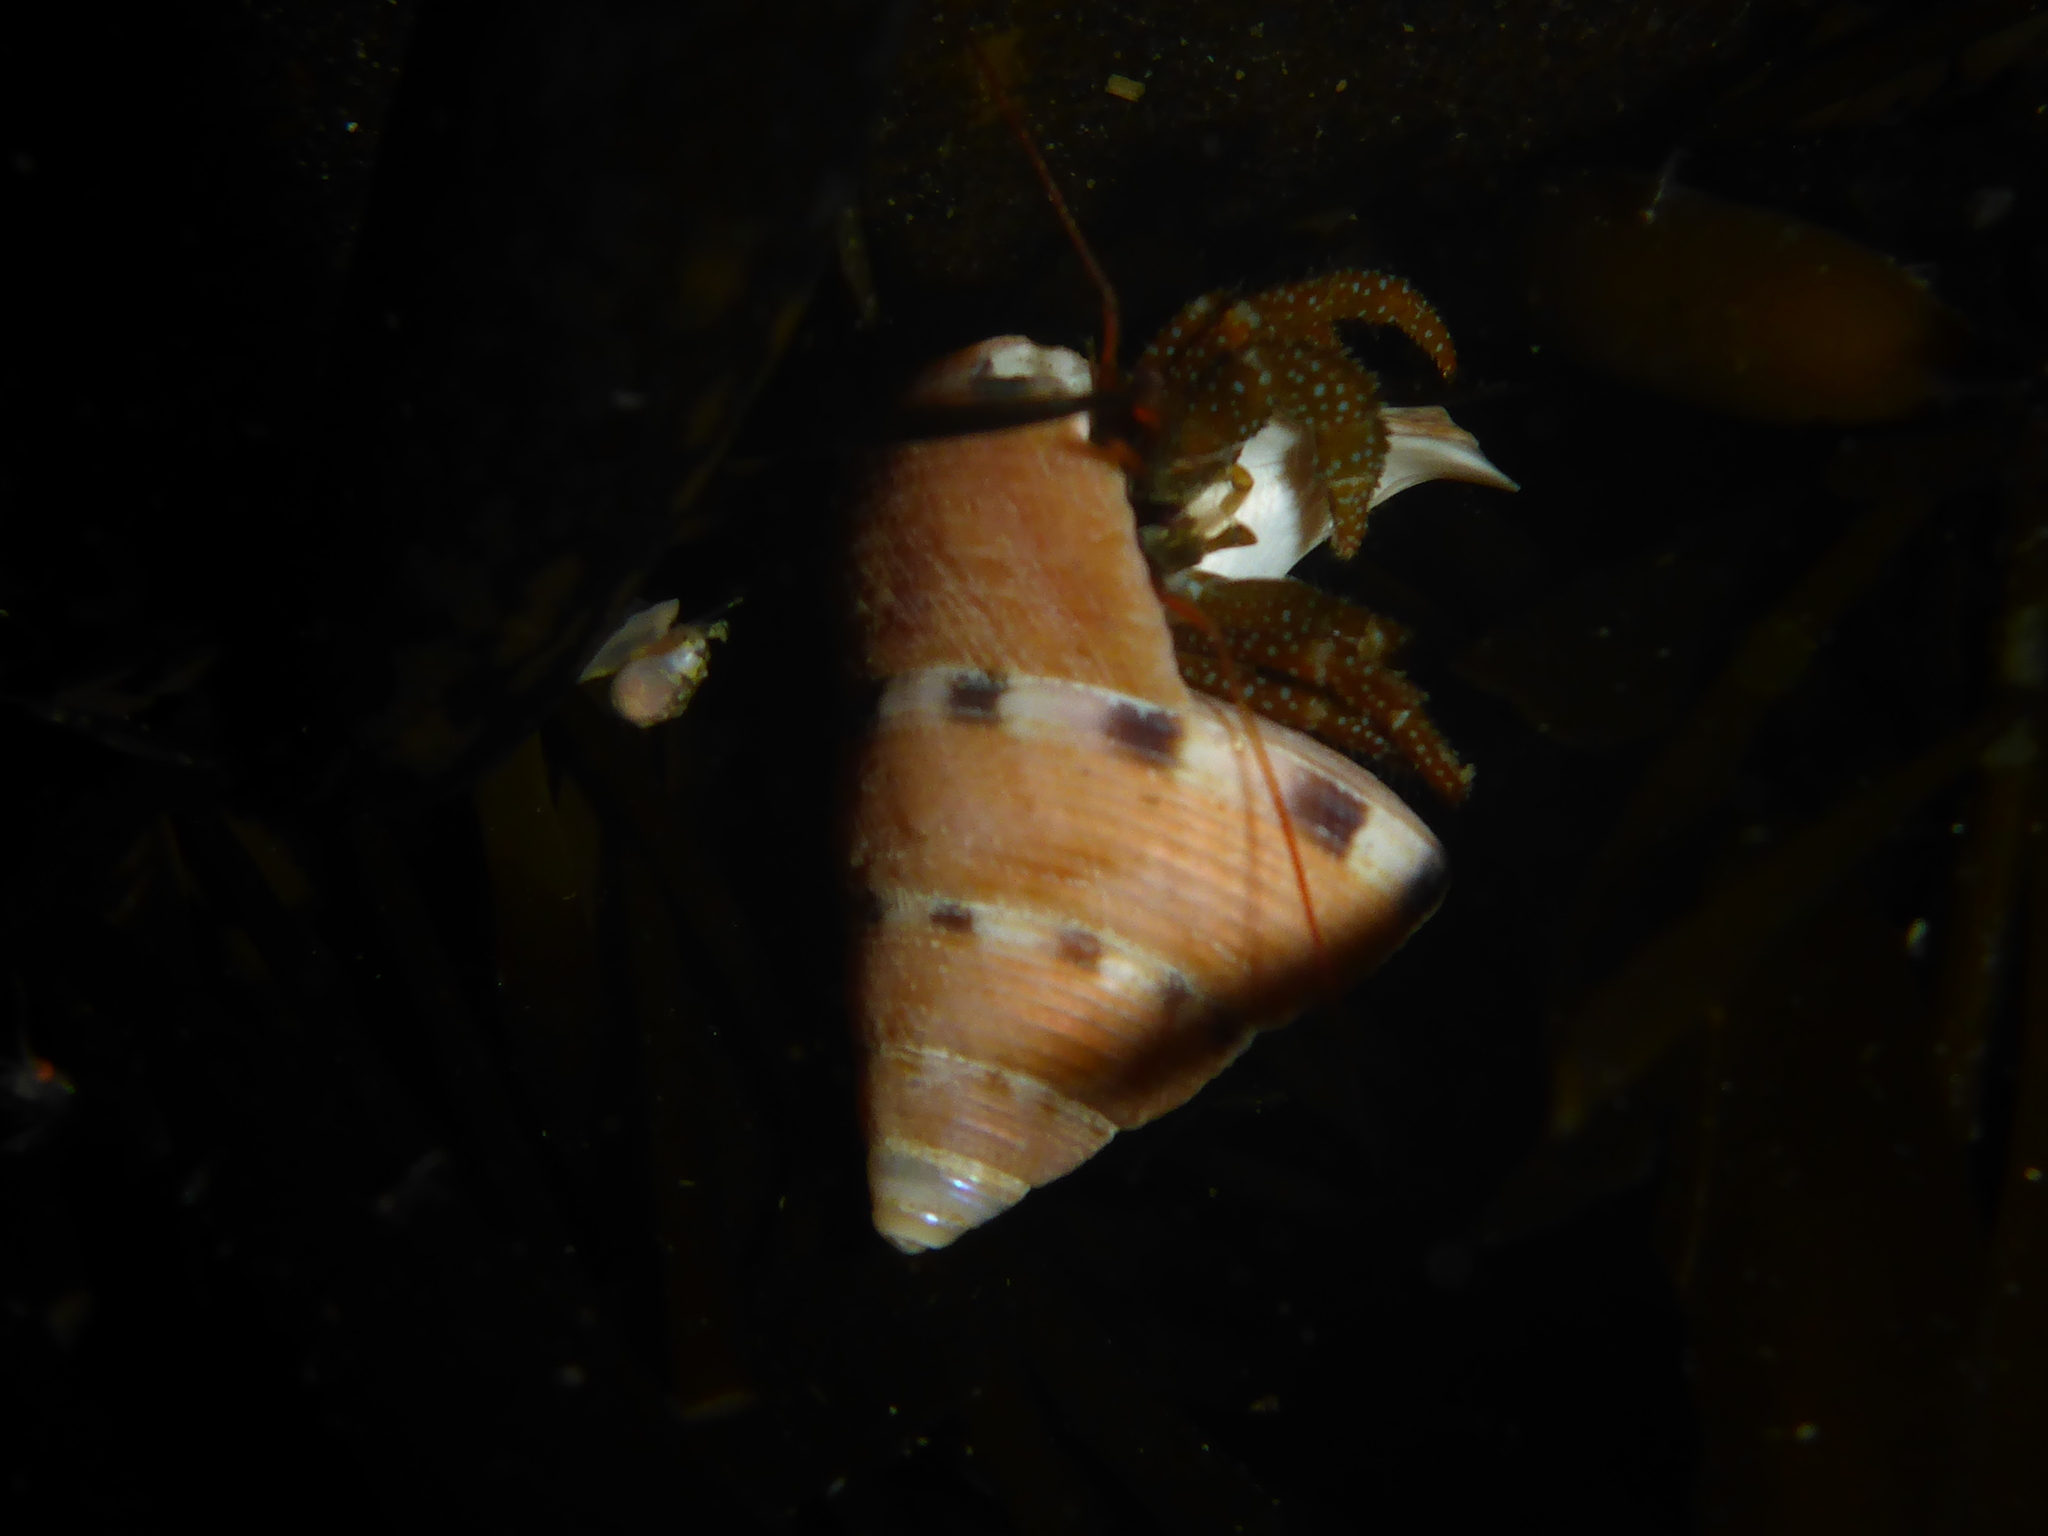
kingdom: Animalia
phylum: Arthropoda
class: Malacostraca
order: Decapoda
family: Paguridae
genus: Pagurus
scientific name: Pagurus granosimanus
